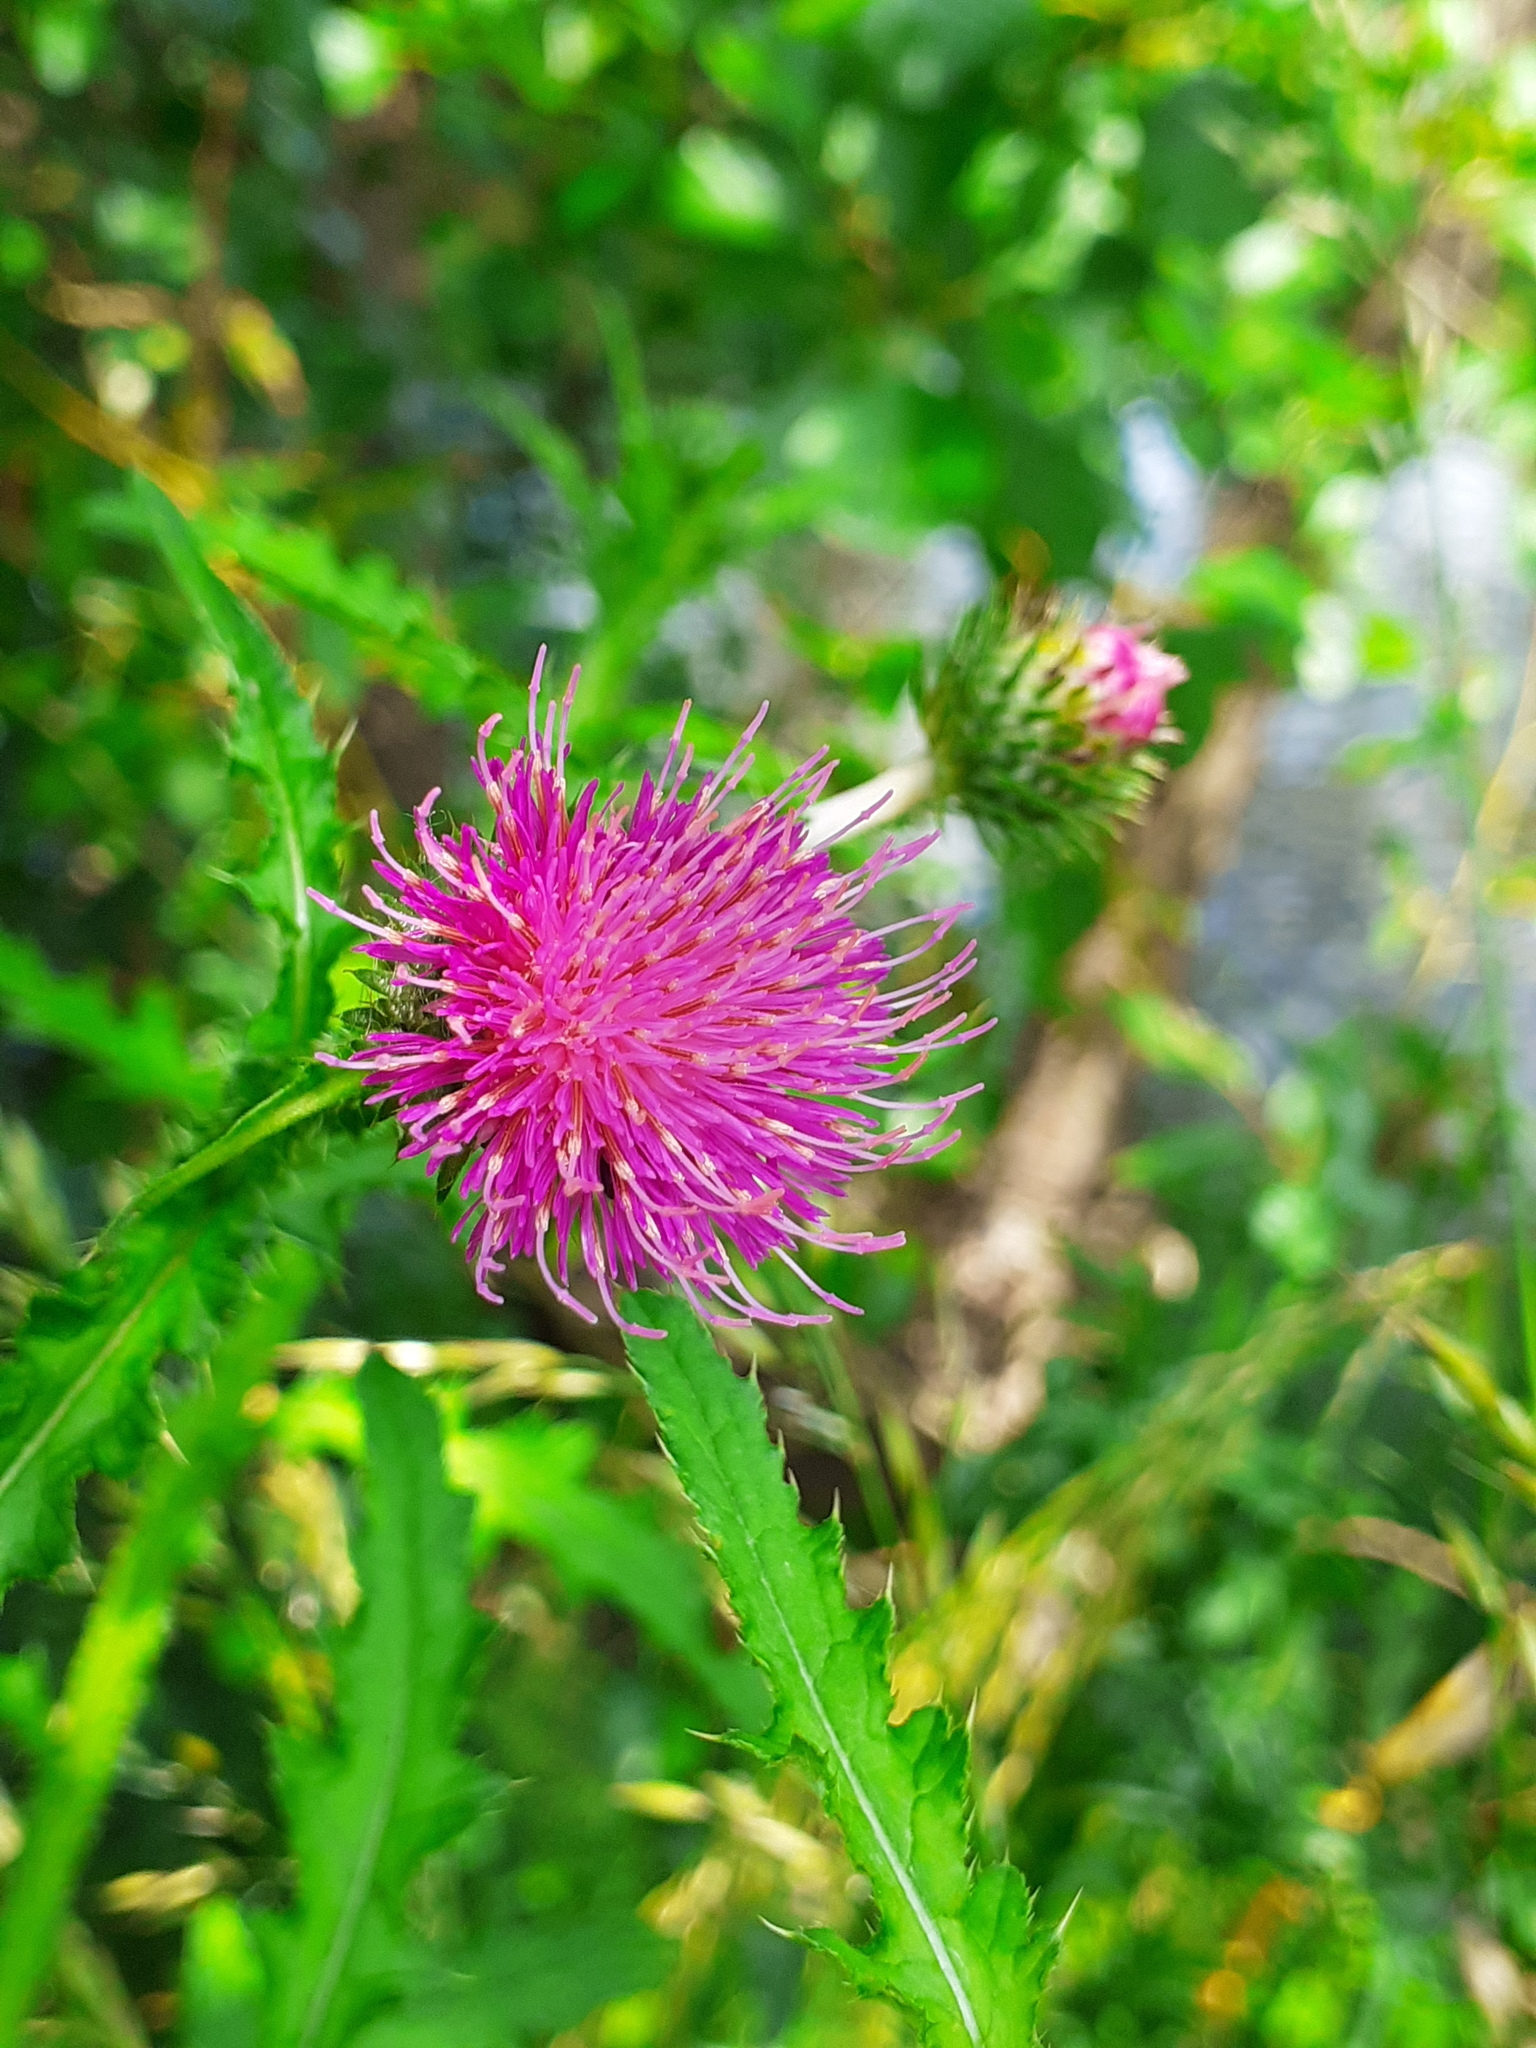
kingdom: Plantae
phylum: Tracheophyta
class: Magnoliopsida
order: Asterales
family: Asteraceae
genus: Carduus
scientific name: Carduus crispus
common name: Welted thistle
